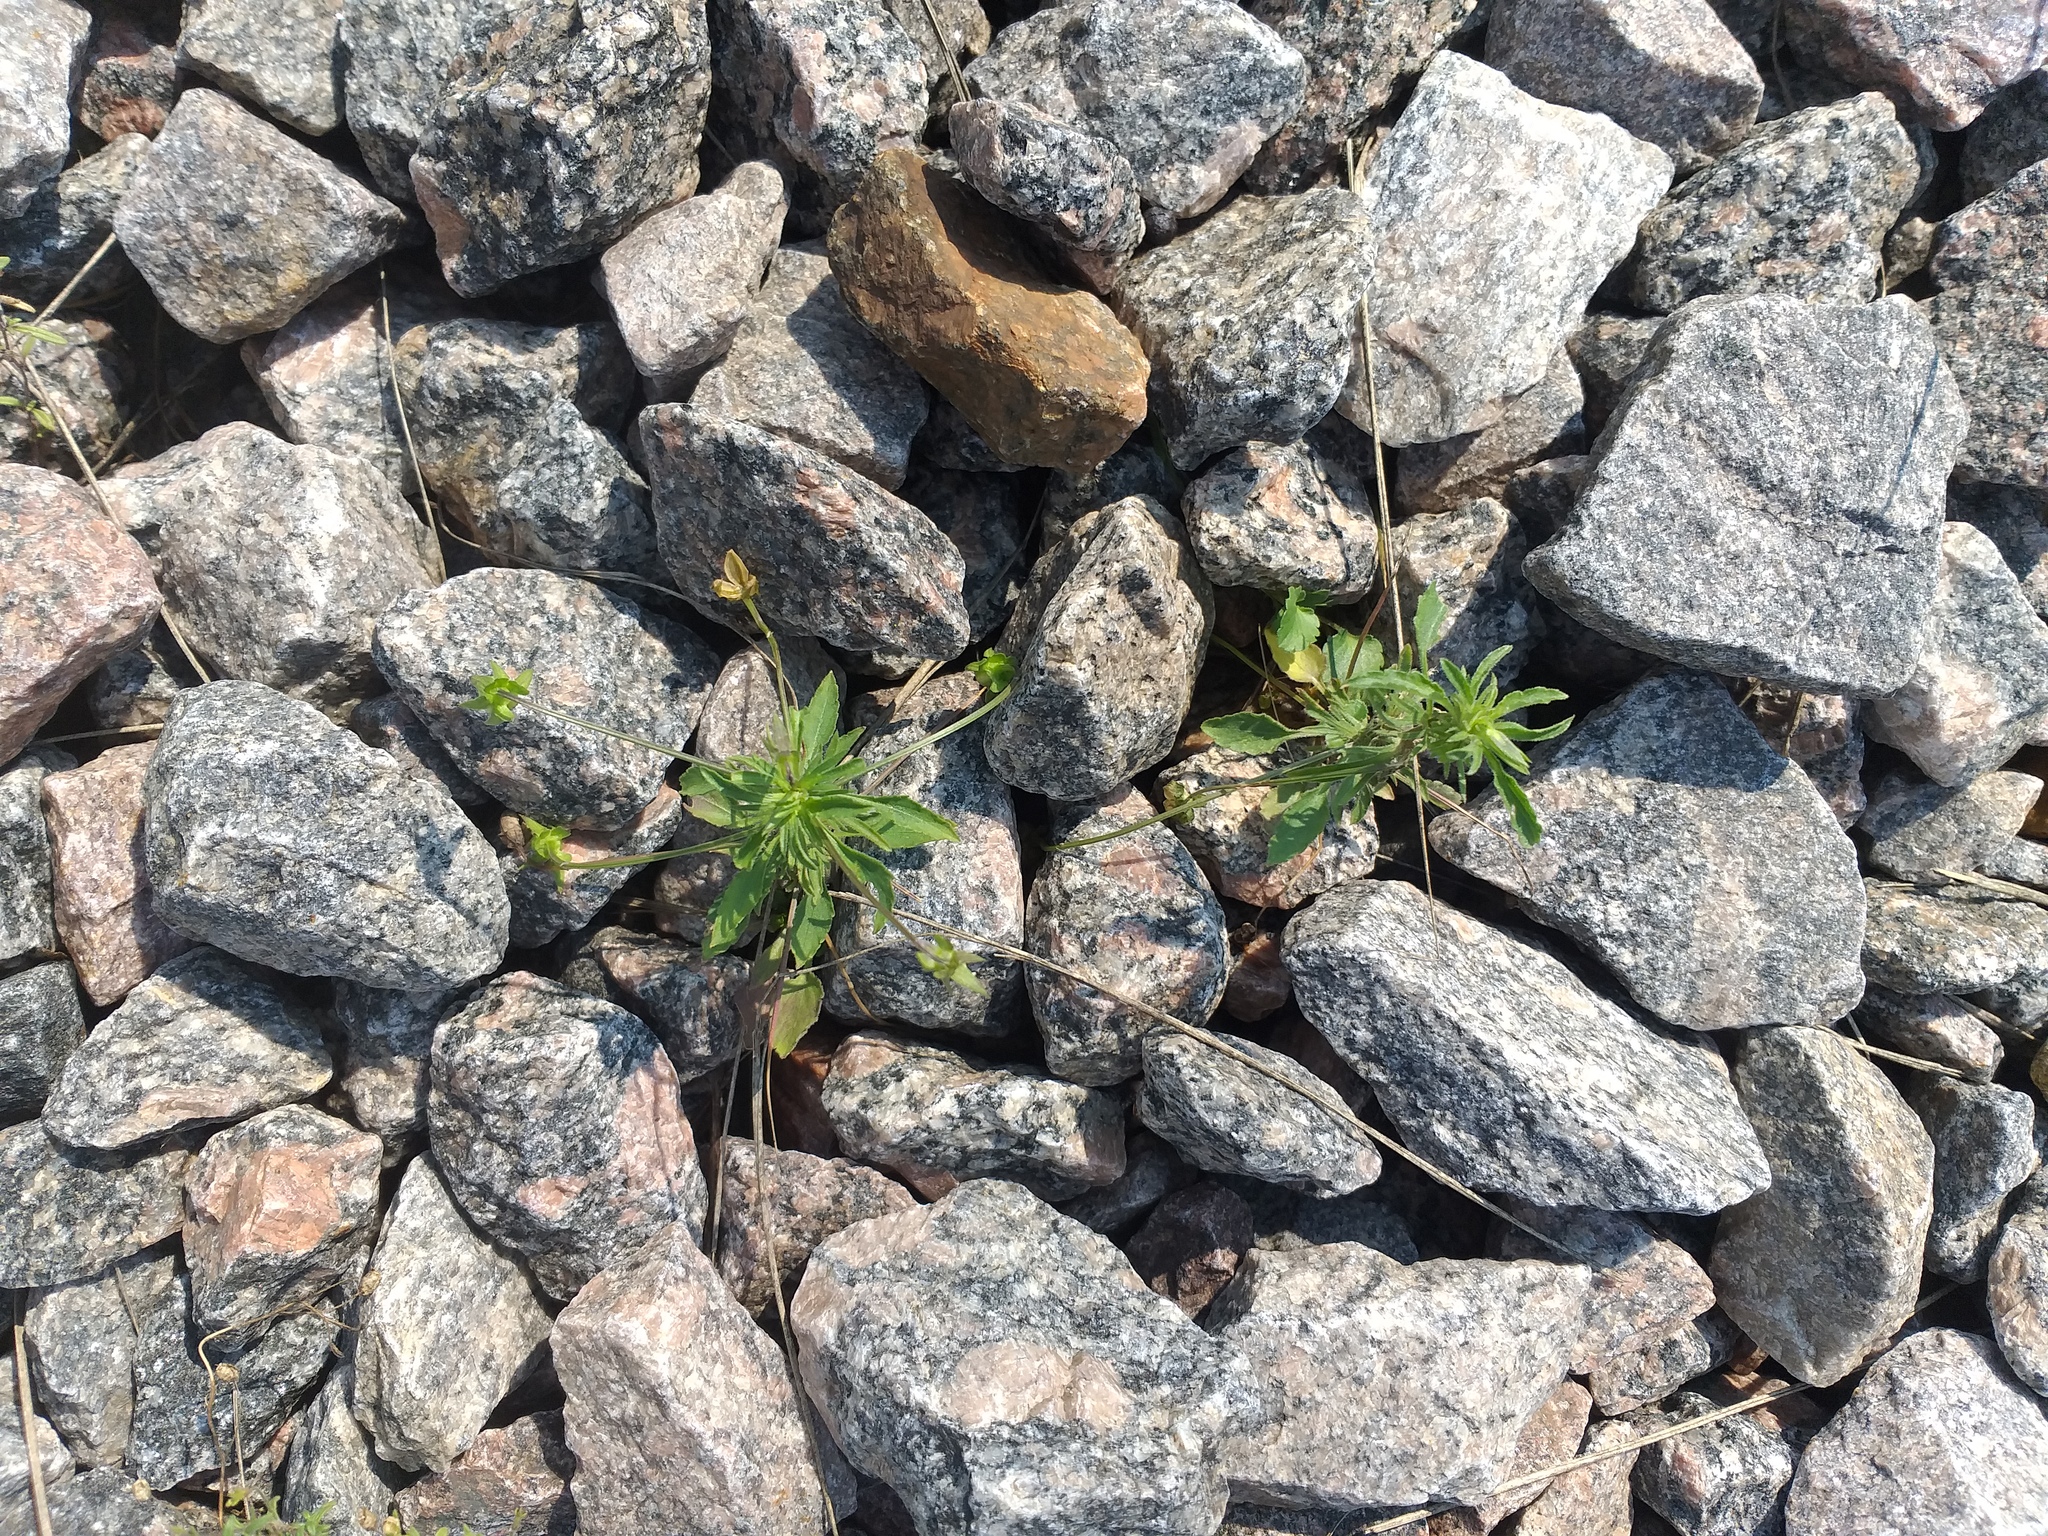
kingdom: Plantae
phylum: Tracheophyta
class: Magnoliopsida
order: Malpighiales
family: Violaceae
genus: Viola
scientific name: Viola arvensis
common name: Field pansy
